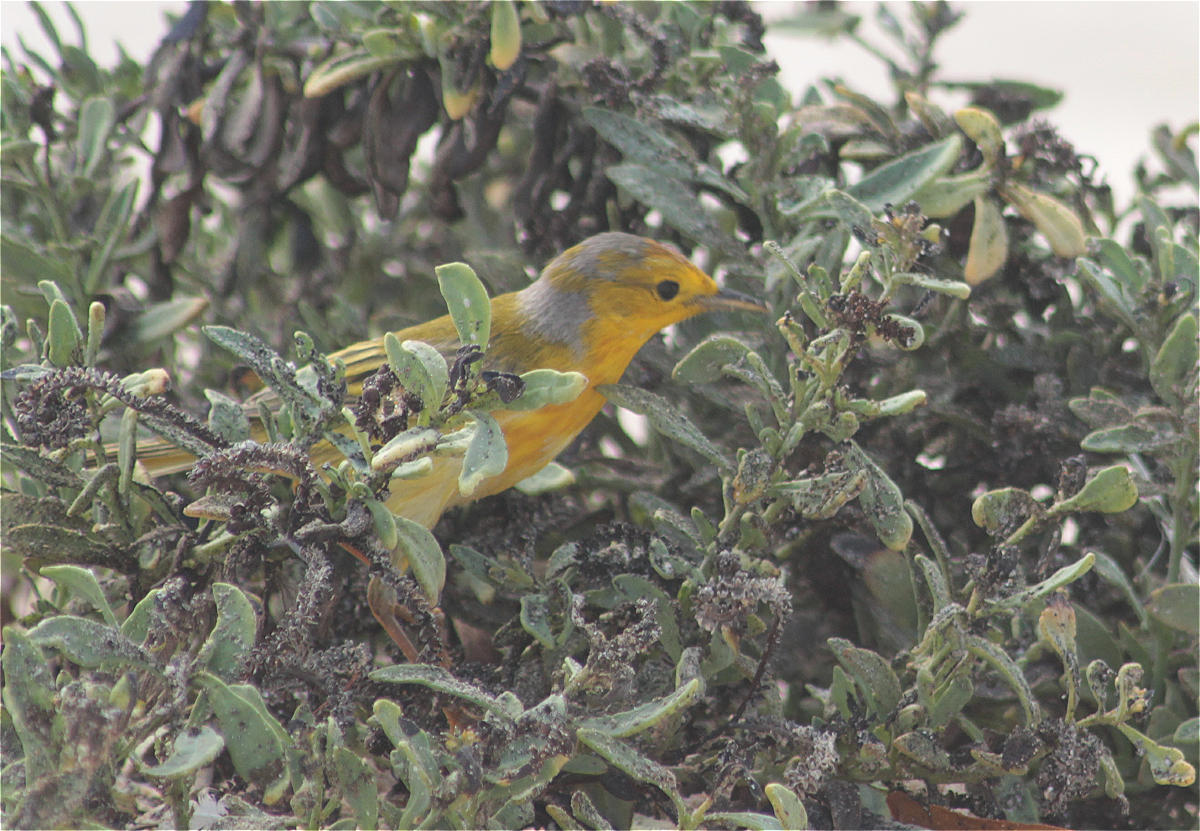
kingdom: Animalia
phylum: Chordata
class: Aves
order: Passeriformes
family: Parulidae
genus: Setophaga
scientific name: Setophaga petechia
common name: Yellow warbler
